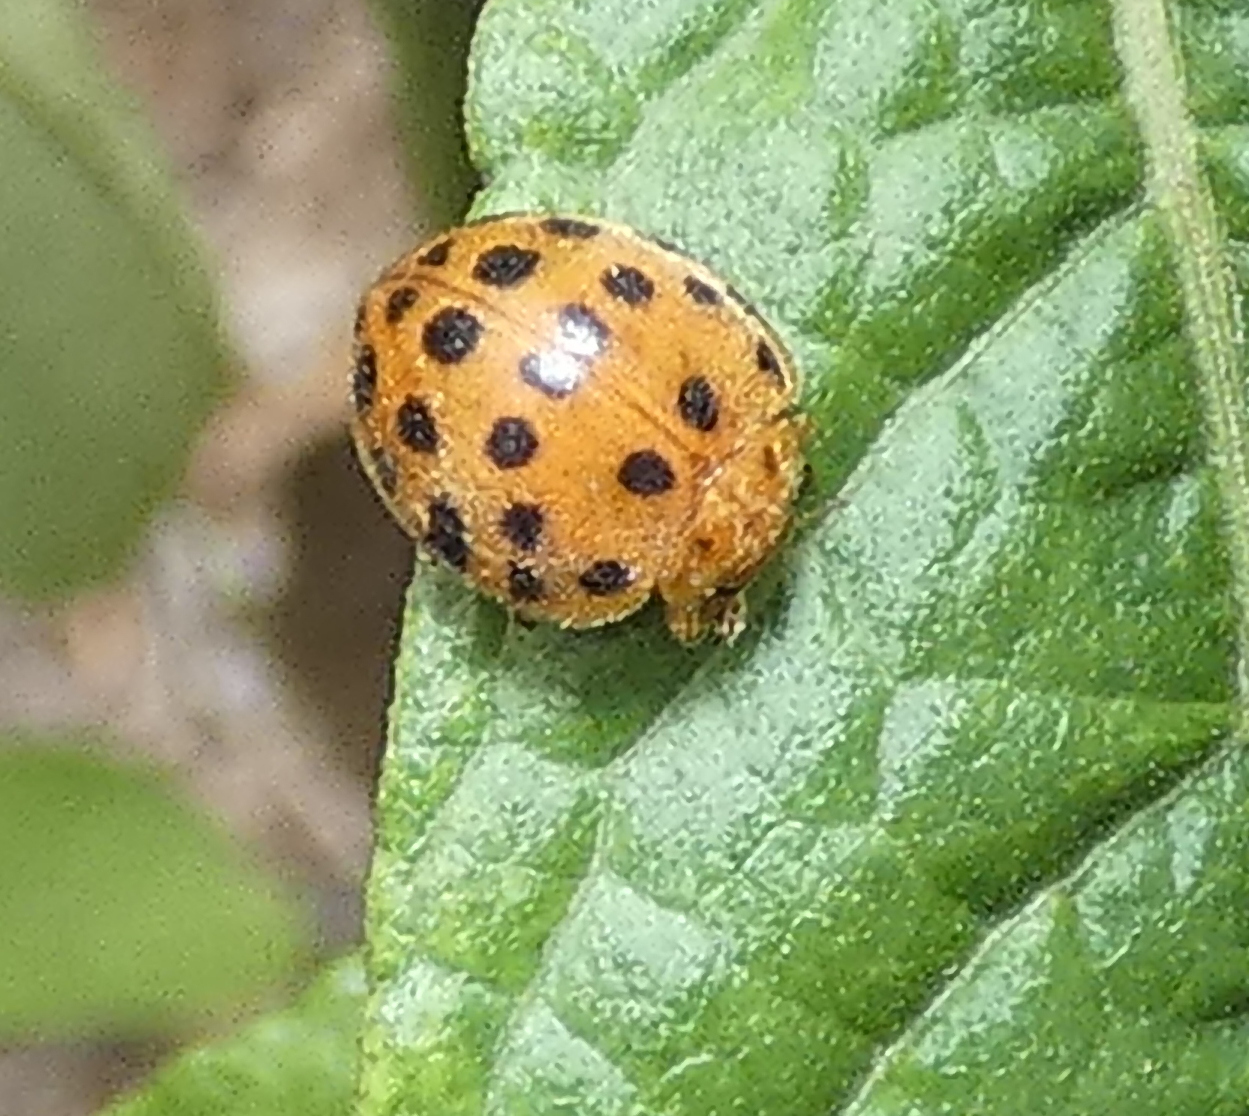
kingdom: Animalia
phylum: Arthropoda
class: Insecta
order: Coleoptera
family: Coccinellidae
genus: Henosepilachna
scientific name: Henosepilachna vigintioctopunctata
